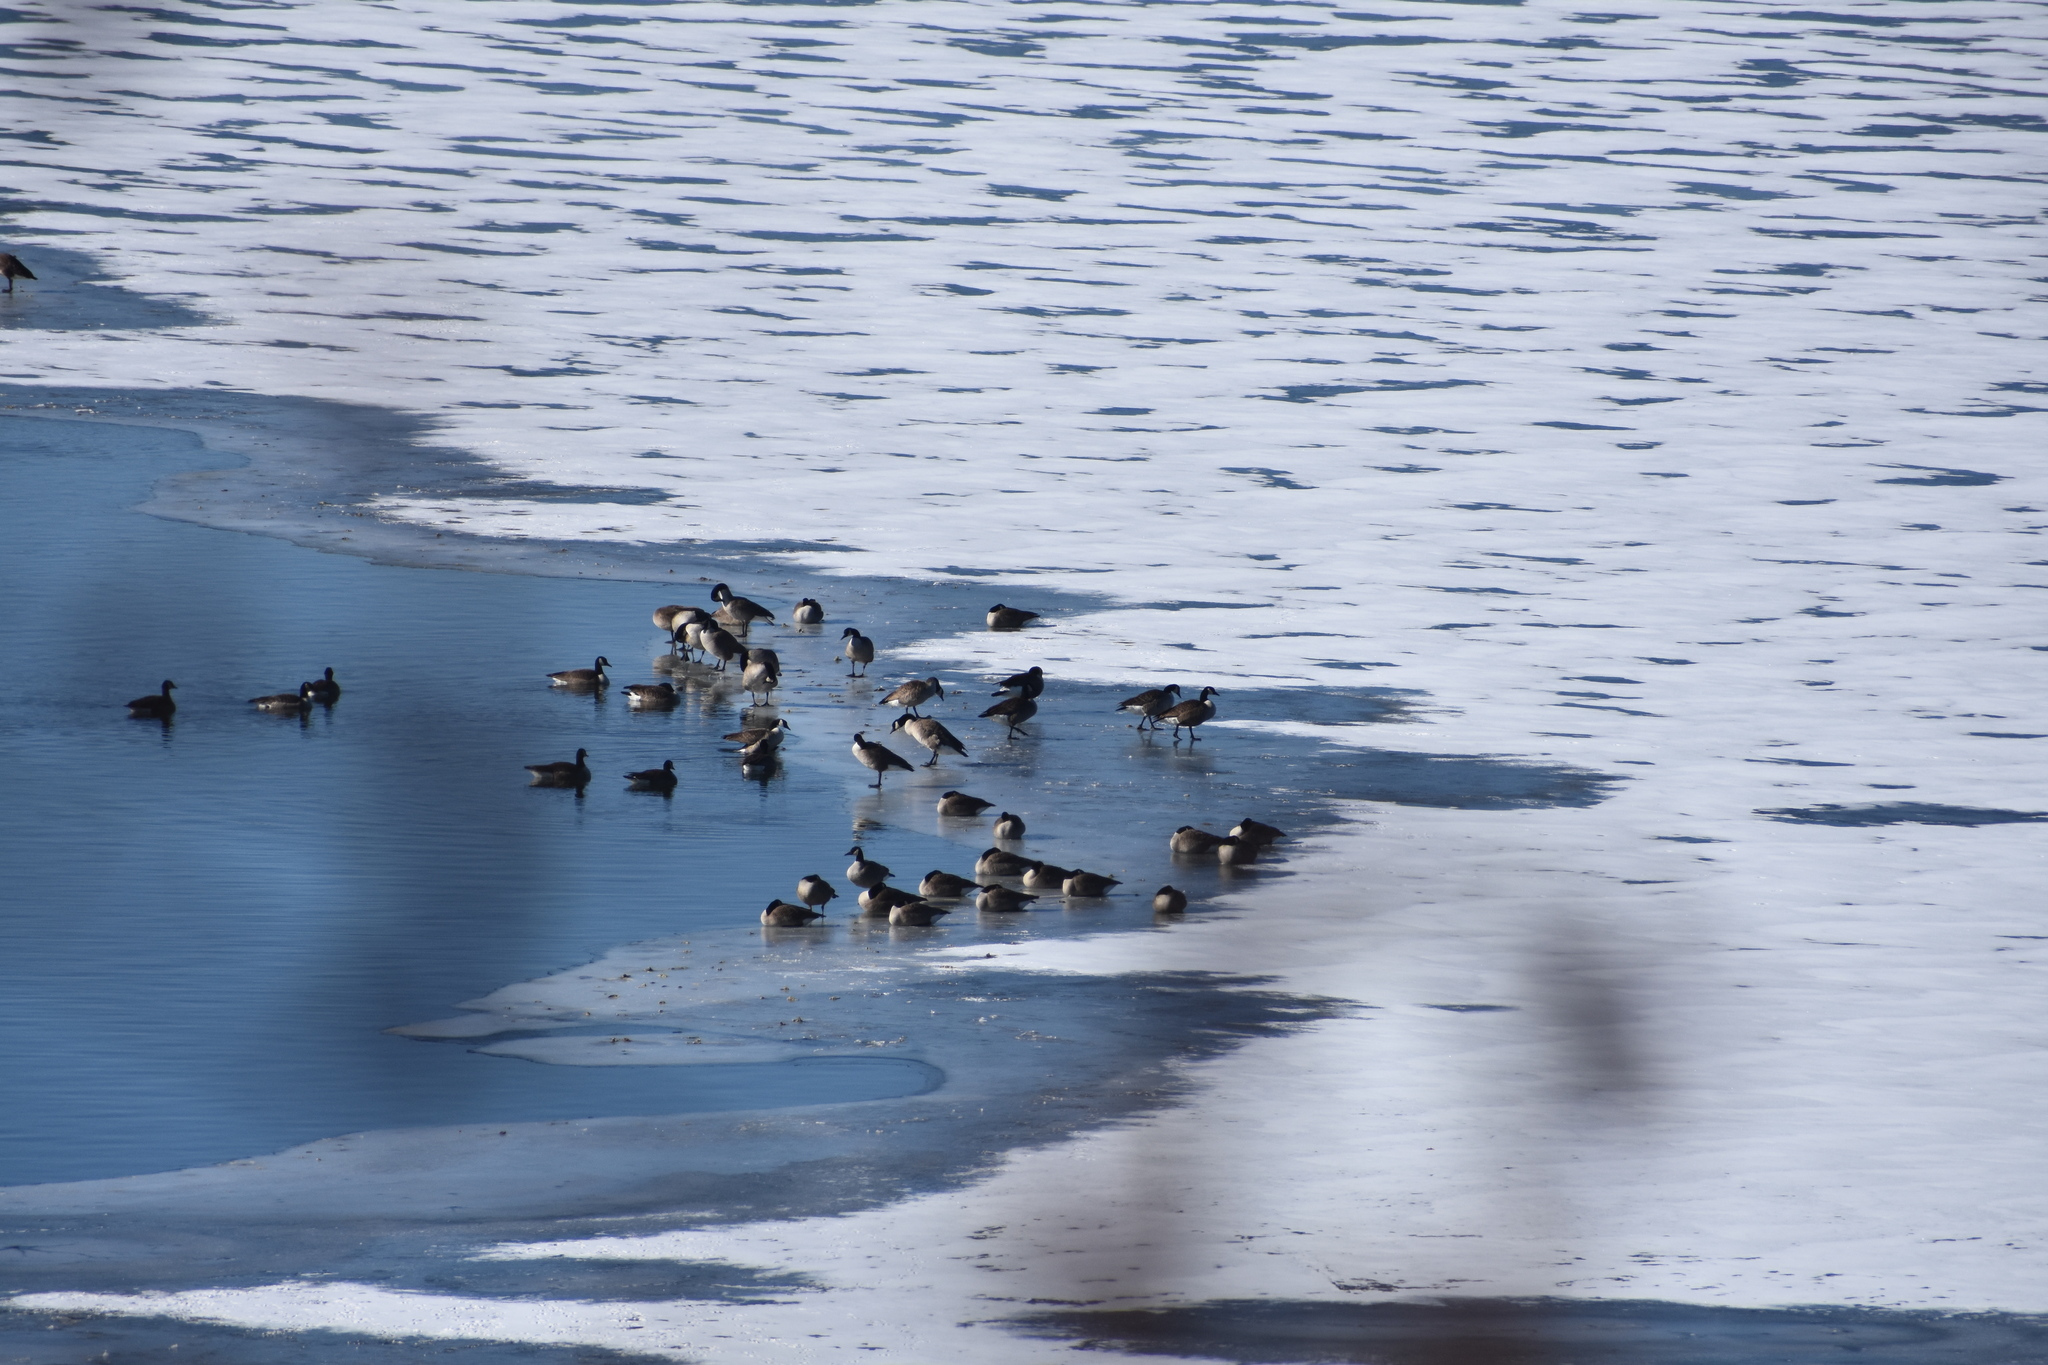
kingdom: Animalia
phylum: Chordata
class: Aves
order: Anseriformes
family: Anatidae
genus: Branta
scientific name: Branta canadensis
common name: Canada goose
